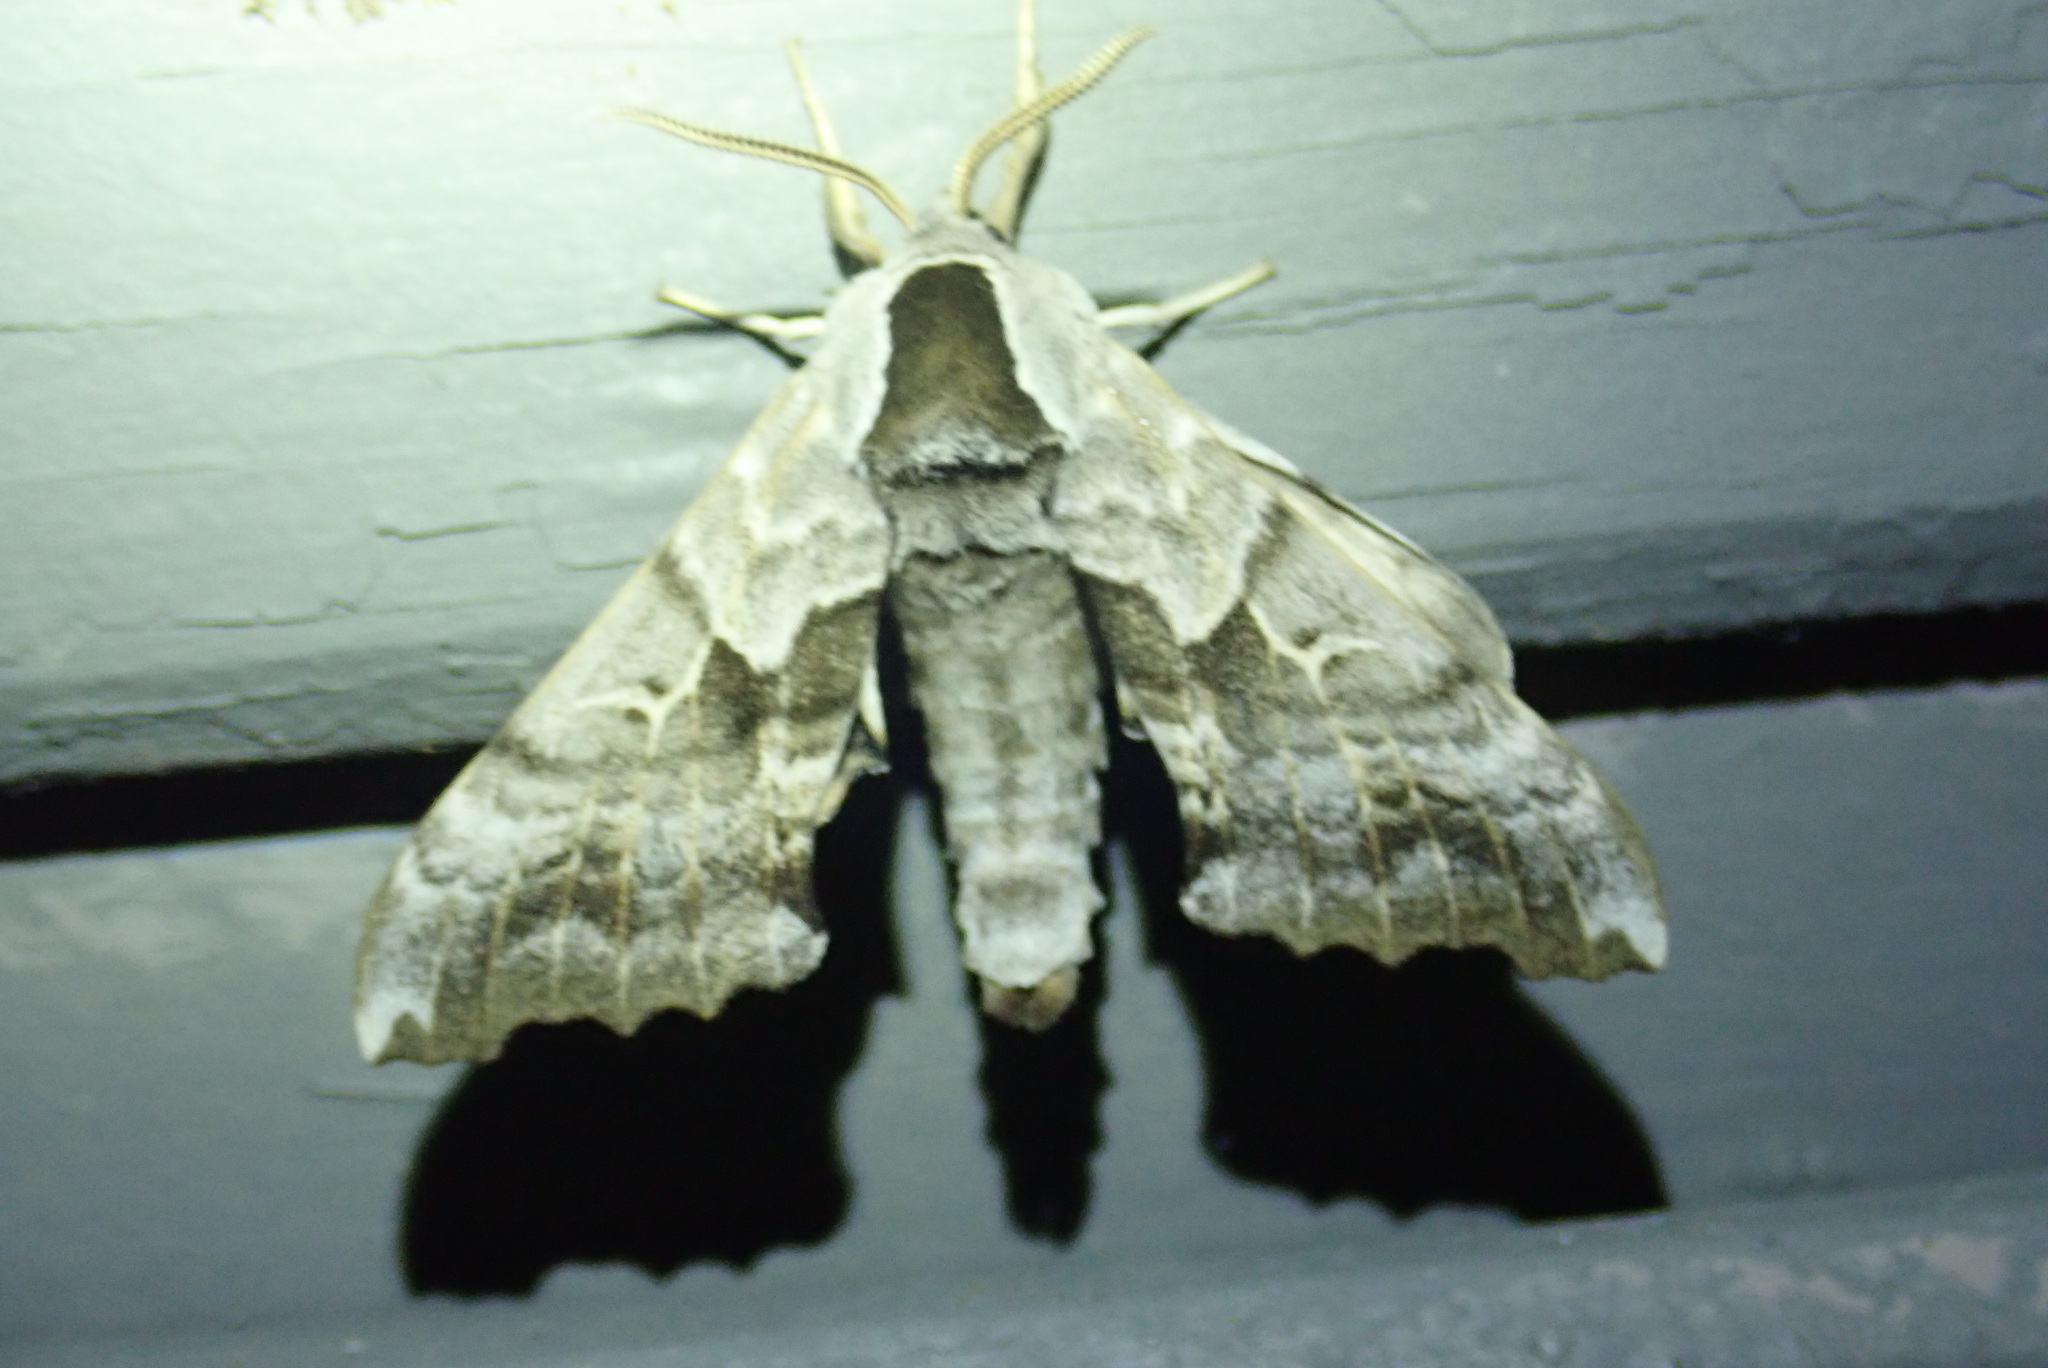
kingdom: Animalia
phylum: Arthropoda
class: Insecta
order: Lepidoptera
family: Sphingidae
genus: Smerinthus
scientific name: Smerinthus cerisyi
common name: Cerisy's sphinx moth
